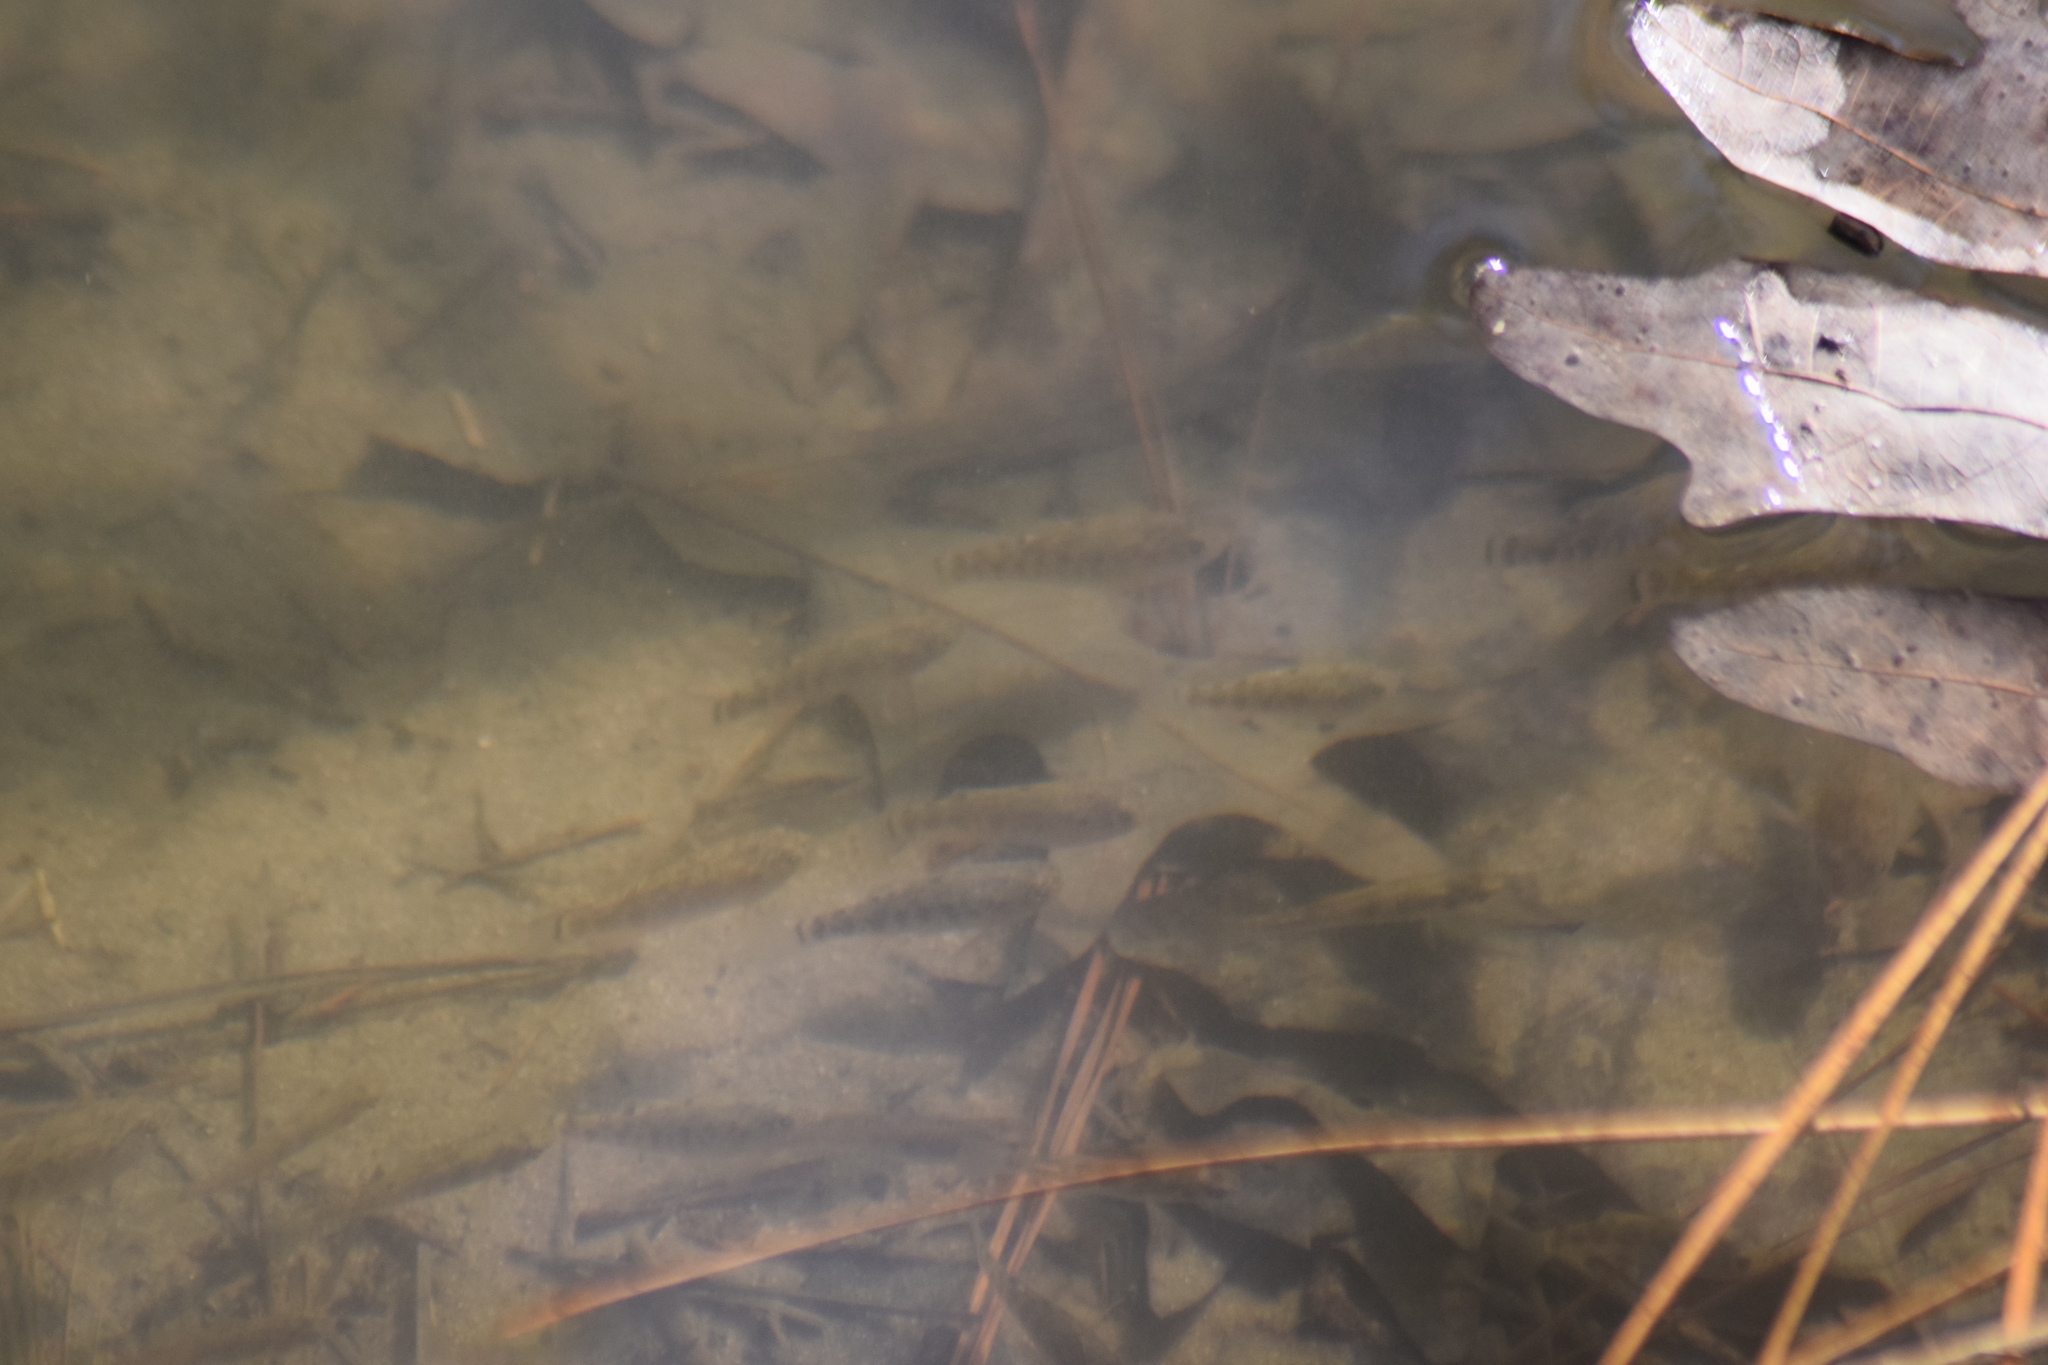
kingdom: Animalia
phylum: Chordata
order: Cyprinodontiformes
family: Cyprinodontidae
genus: Cyprinodon
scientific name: Cyprinodon variegatus
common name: Sheepshead minnow
